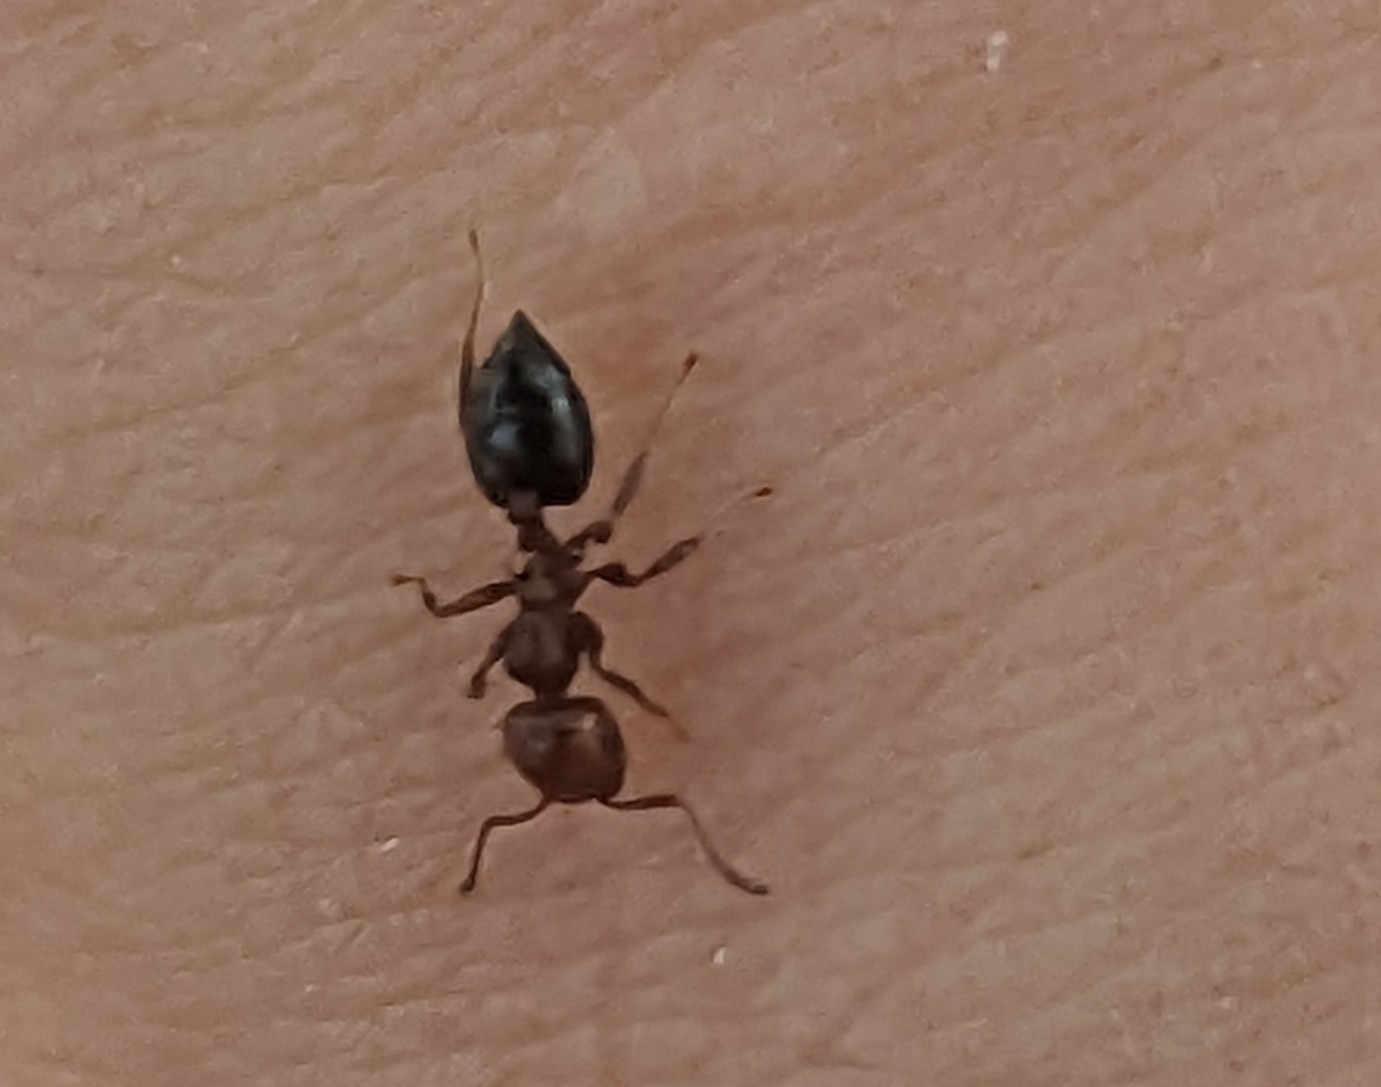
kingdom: Animalia
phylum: Arthropoda
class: Insecta
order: Hymenoptera
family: Formicidae
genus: Crematogaster
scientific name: Crematogaster schmidti
